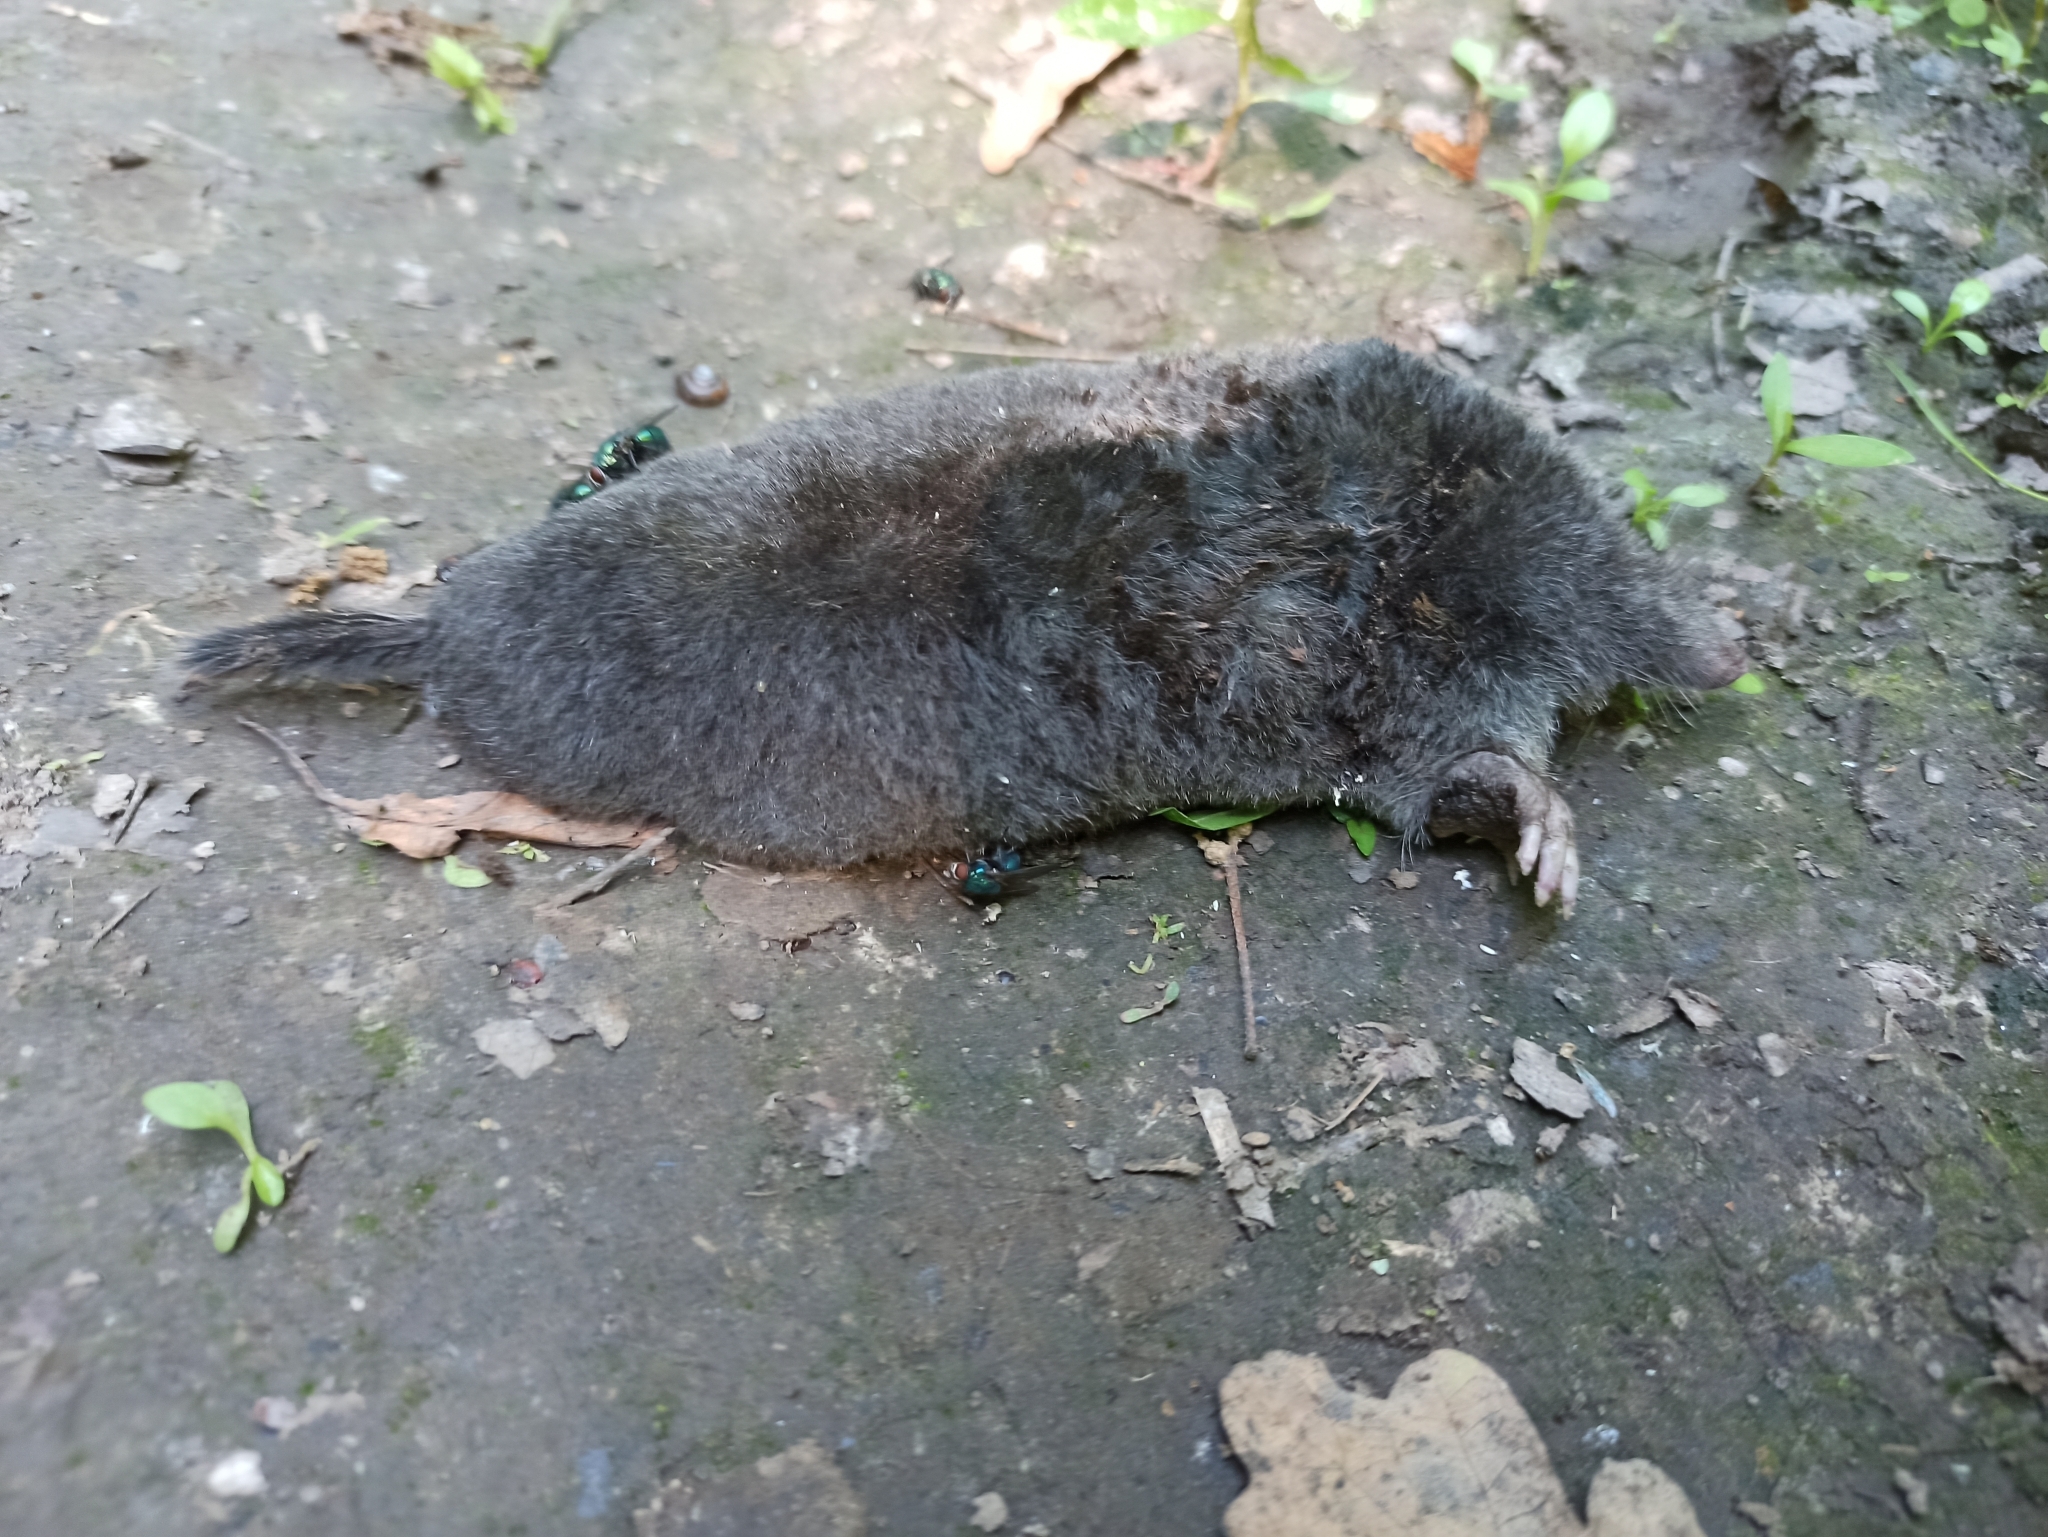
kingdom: Animalia
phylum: Chordata
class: Mammalia
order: Soricomorpha
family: Talpidae
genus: Talpa
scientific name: Talpa europaea
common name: European mole
